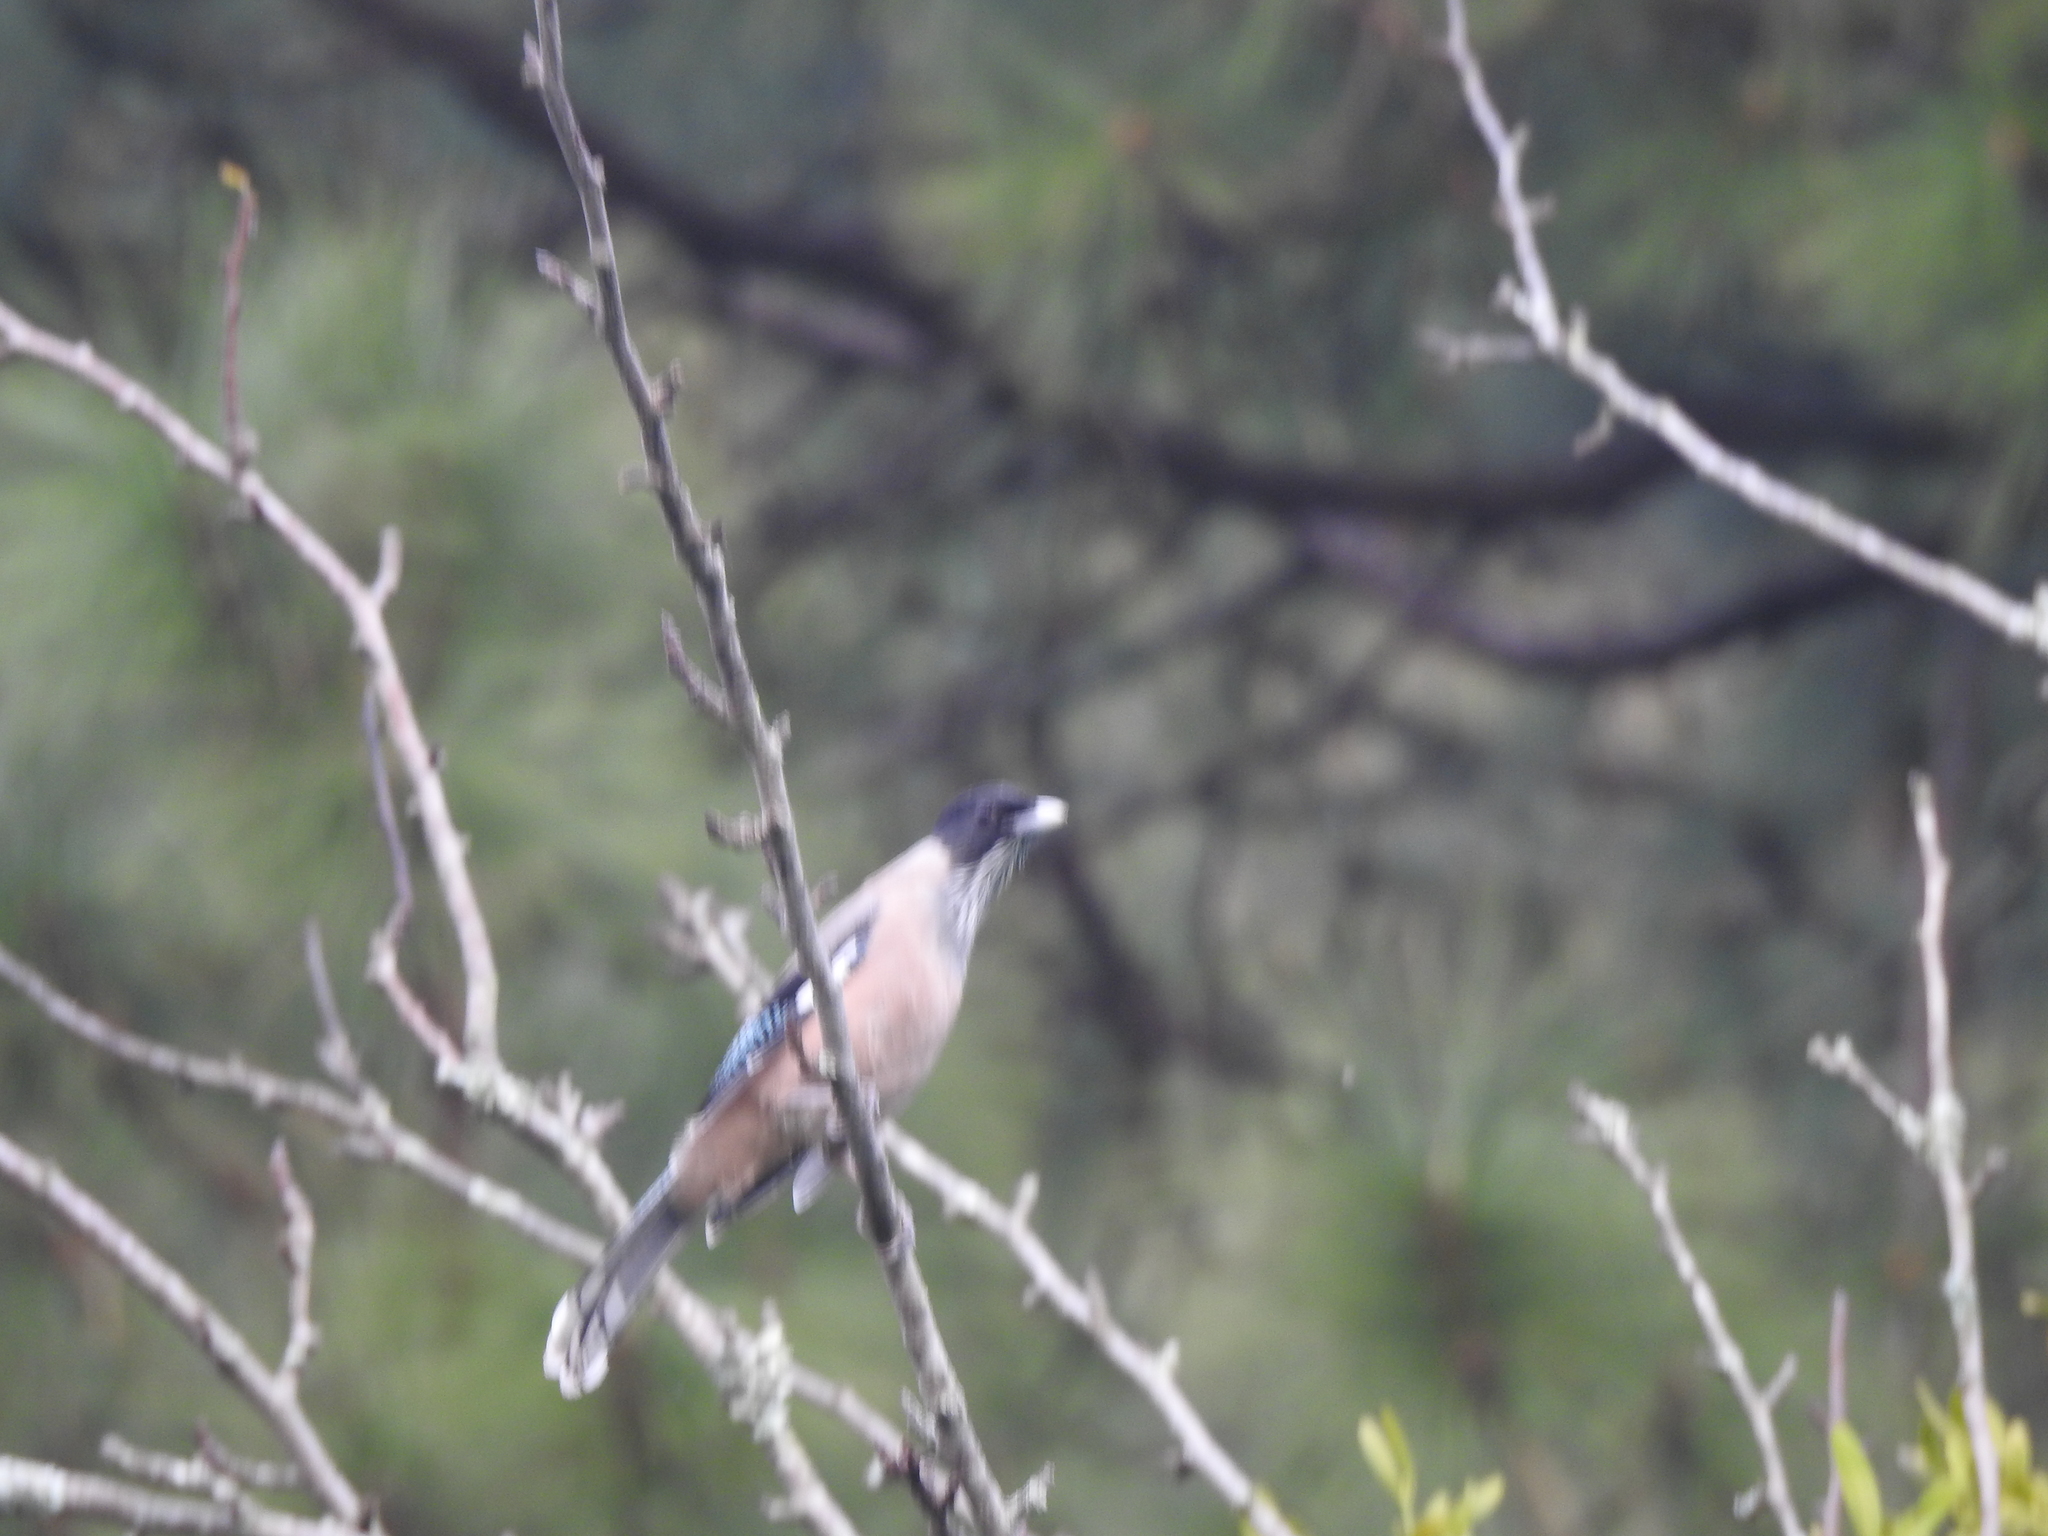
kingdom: Animalia
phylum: Chordata
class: Aves
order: Passeriformes
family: Corvidae
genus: Garrulus
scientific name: Garrulus lanceolatus
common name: Black-headed jay
